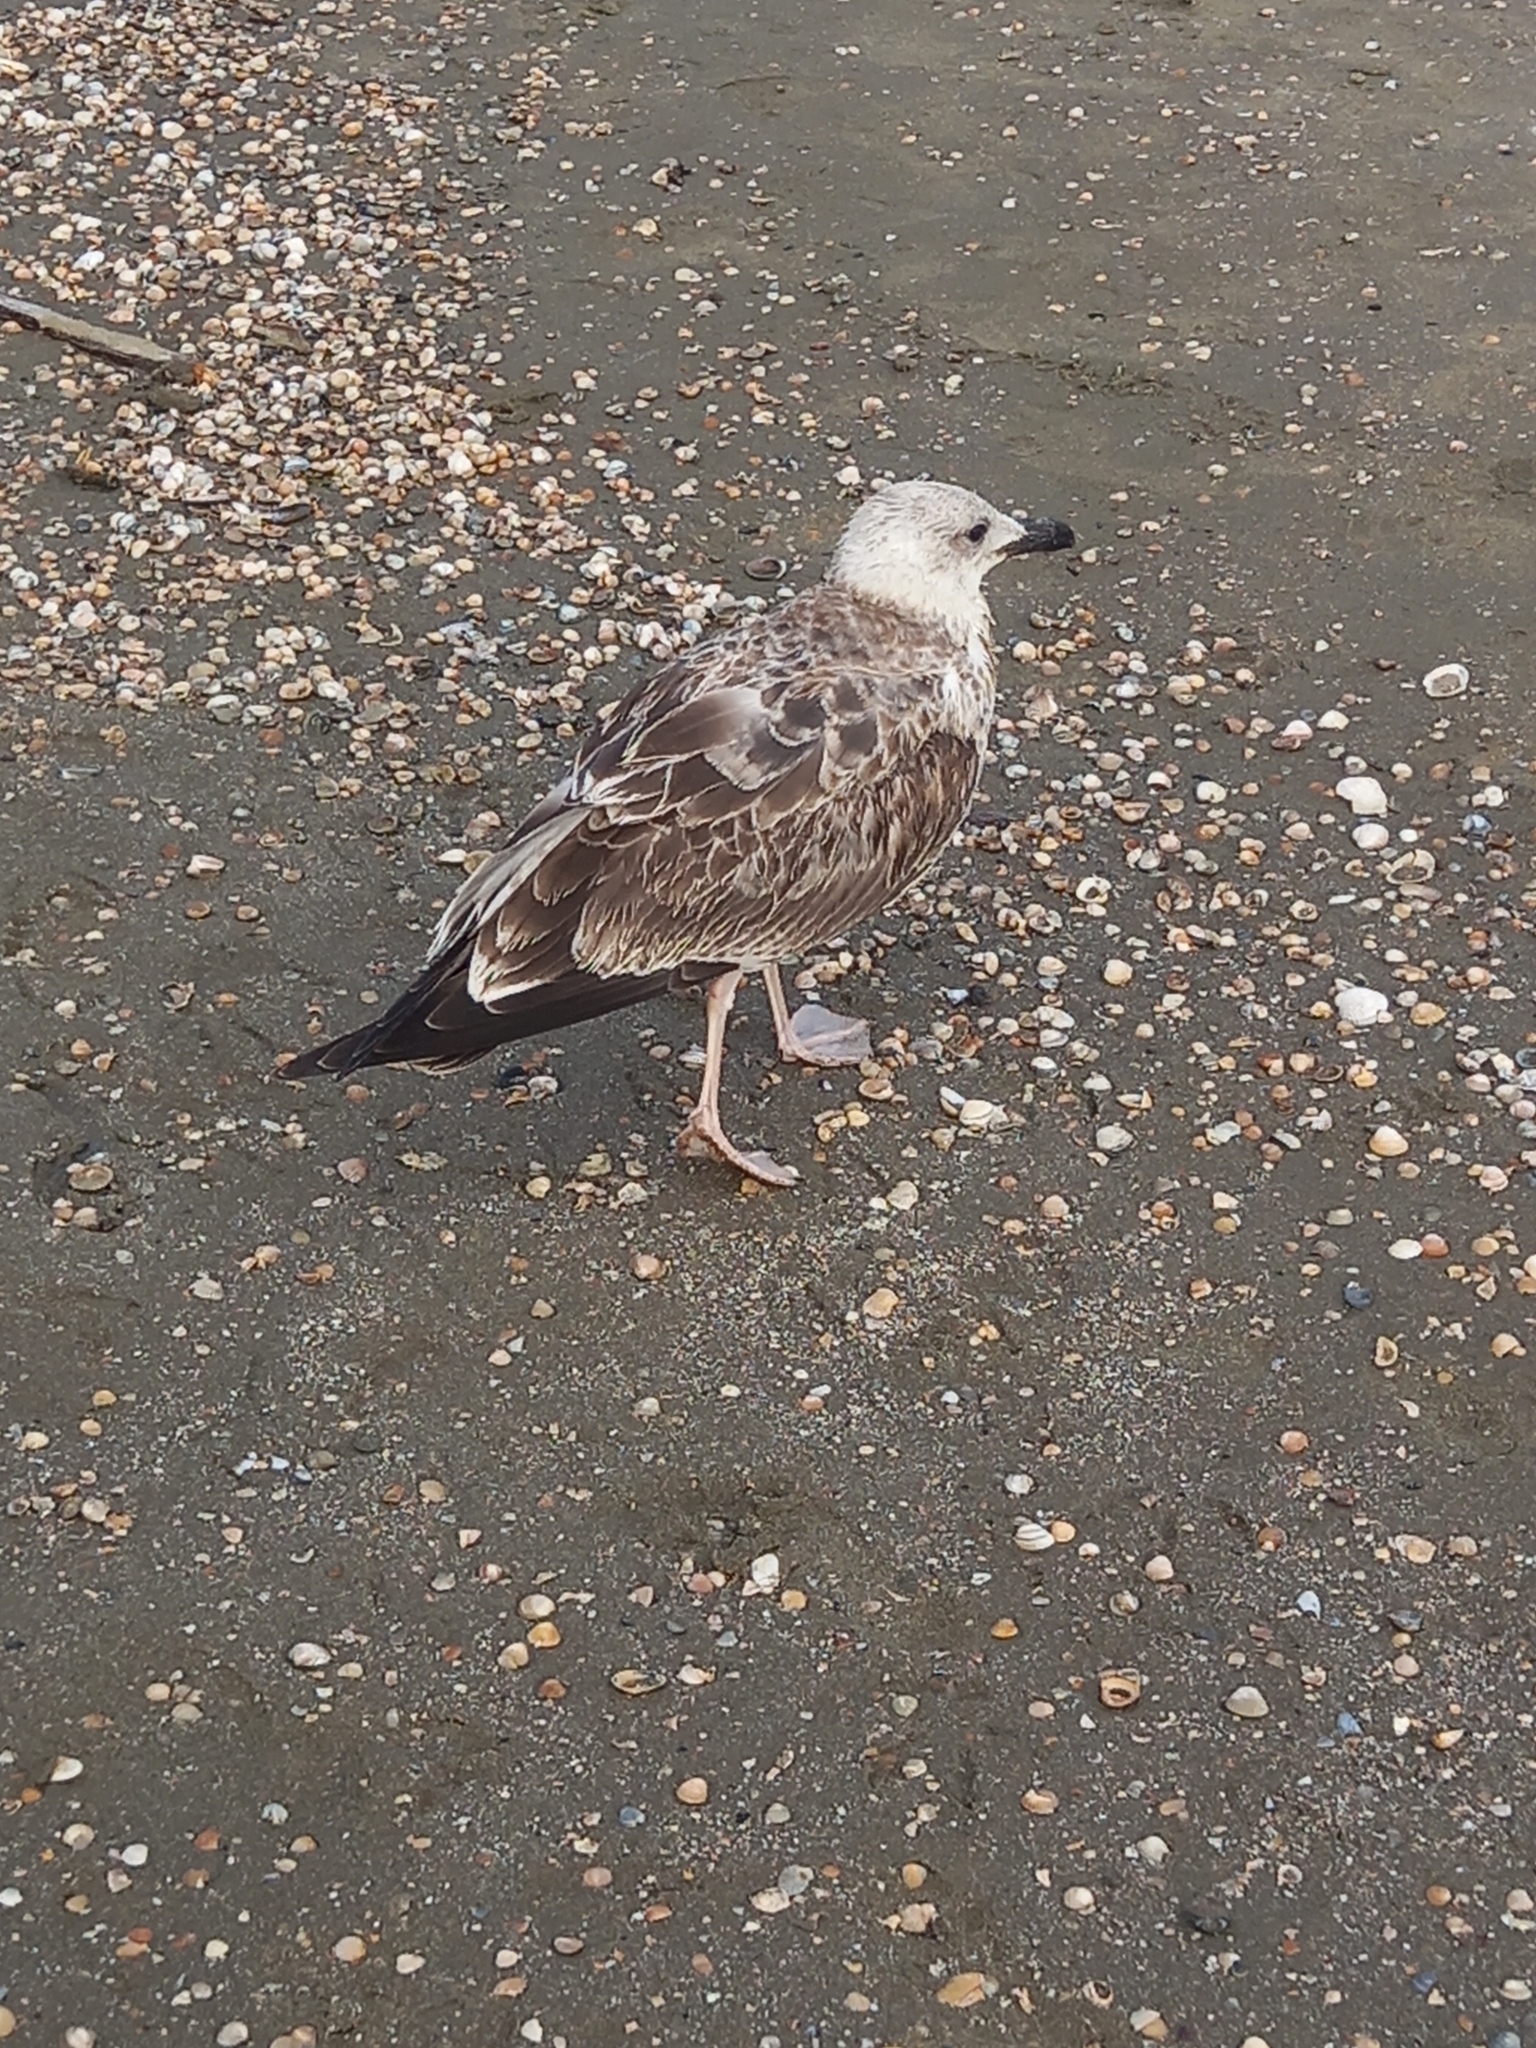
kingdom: Animalia
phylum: Chordata
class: Aves
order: Charadriiformes
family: Laridae
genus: Larus
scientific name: Larus michahellis
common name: Yellow-legged gull
